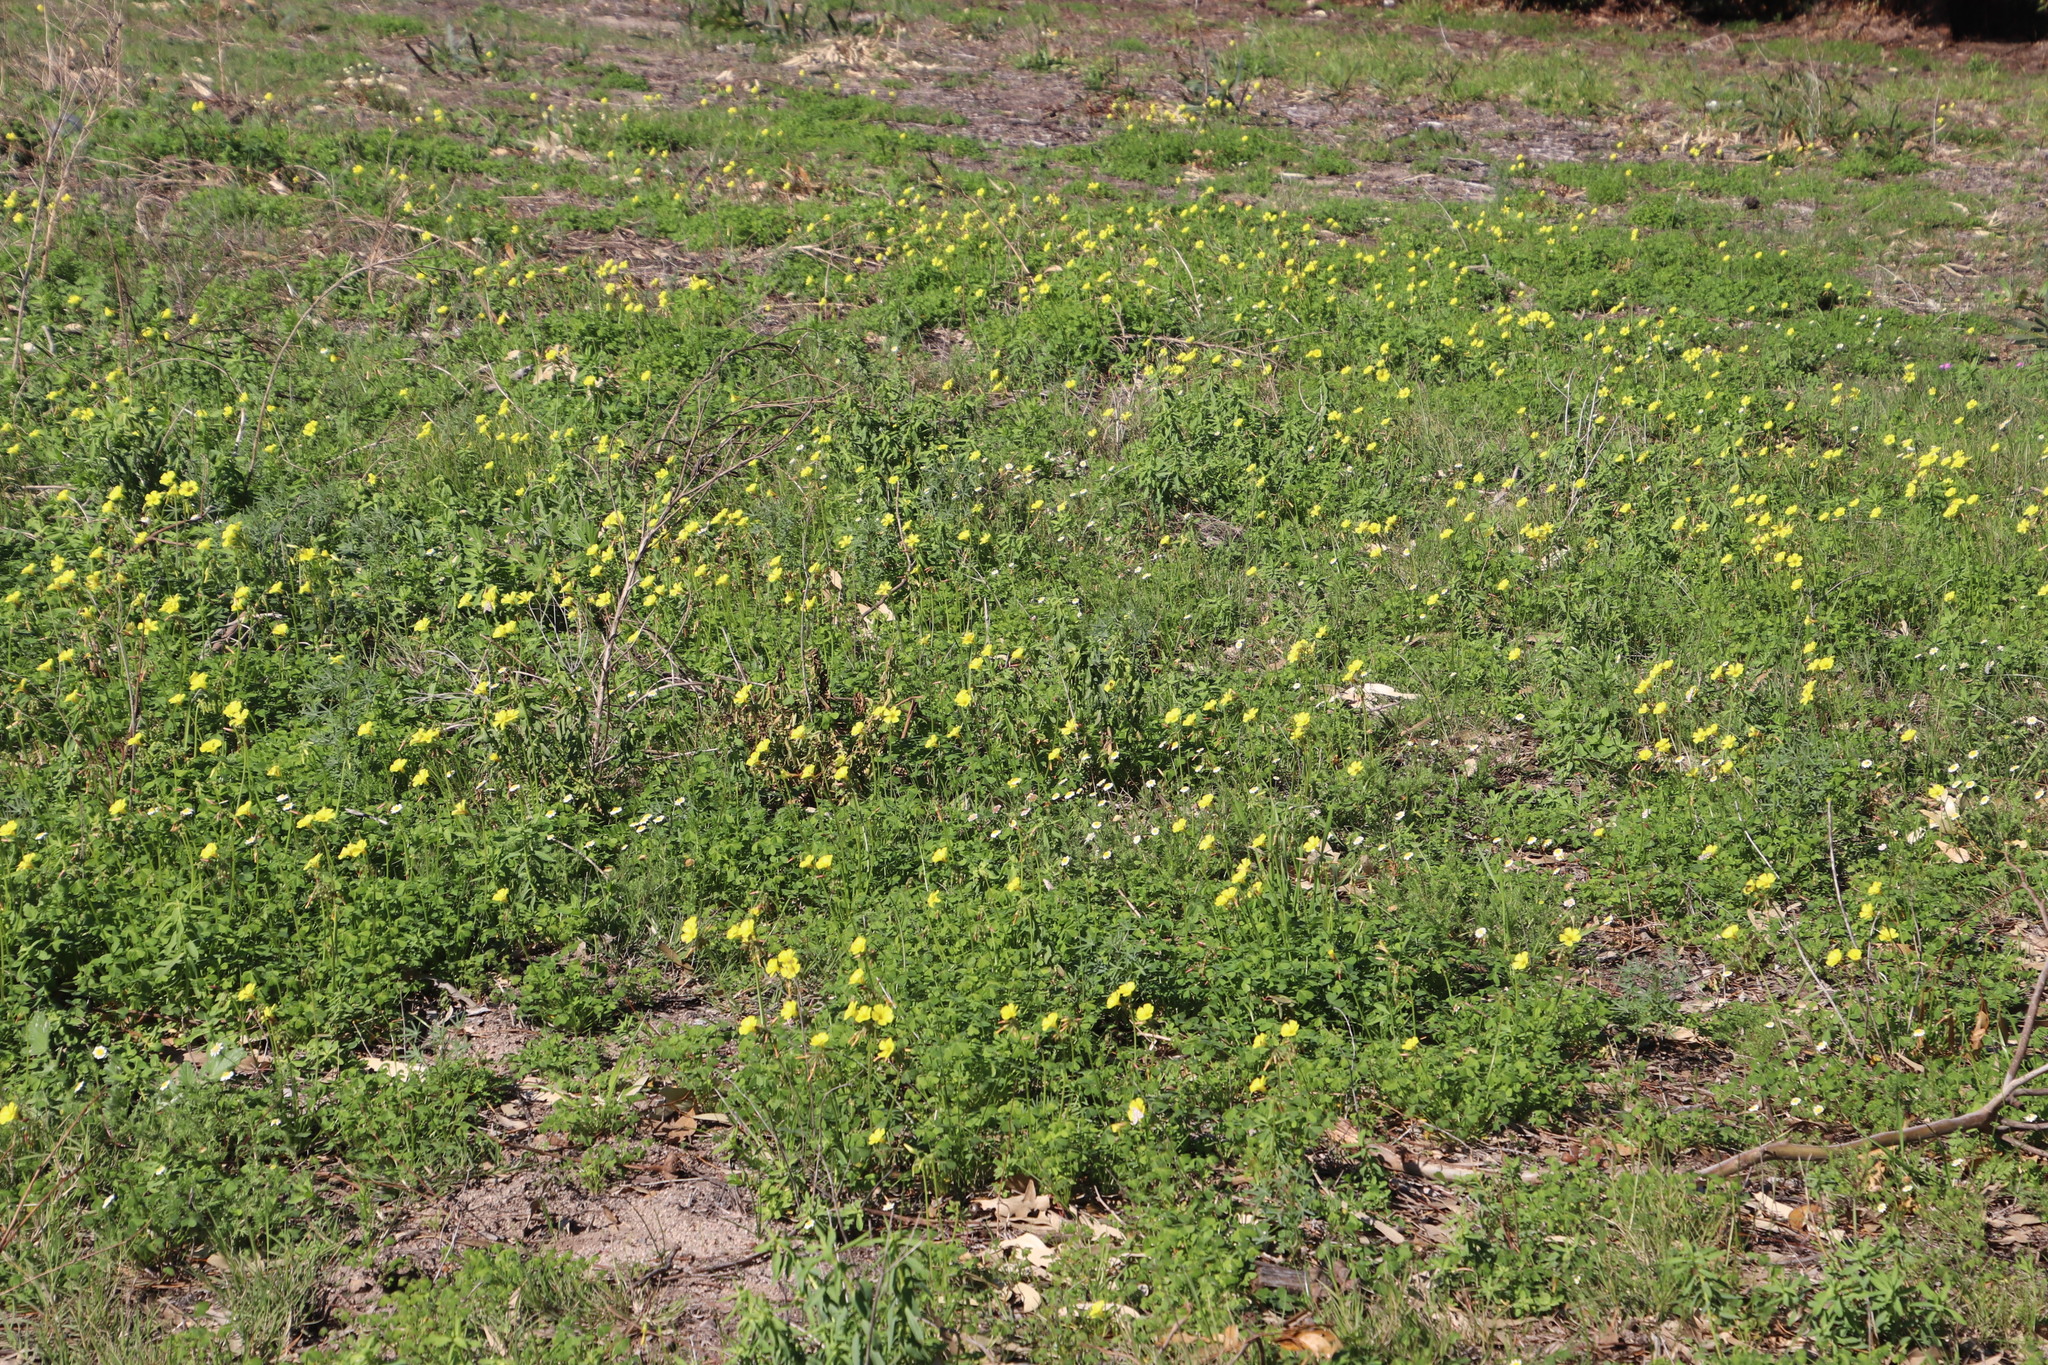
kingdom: Plantae
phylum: Tracheophyta
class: Magnoliopsida
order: Asterales
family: Asteraceae
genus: Cotula
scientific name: Cotula turbinata
